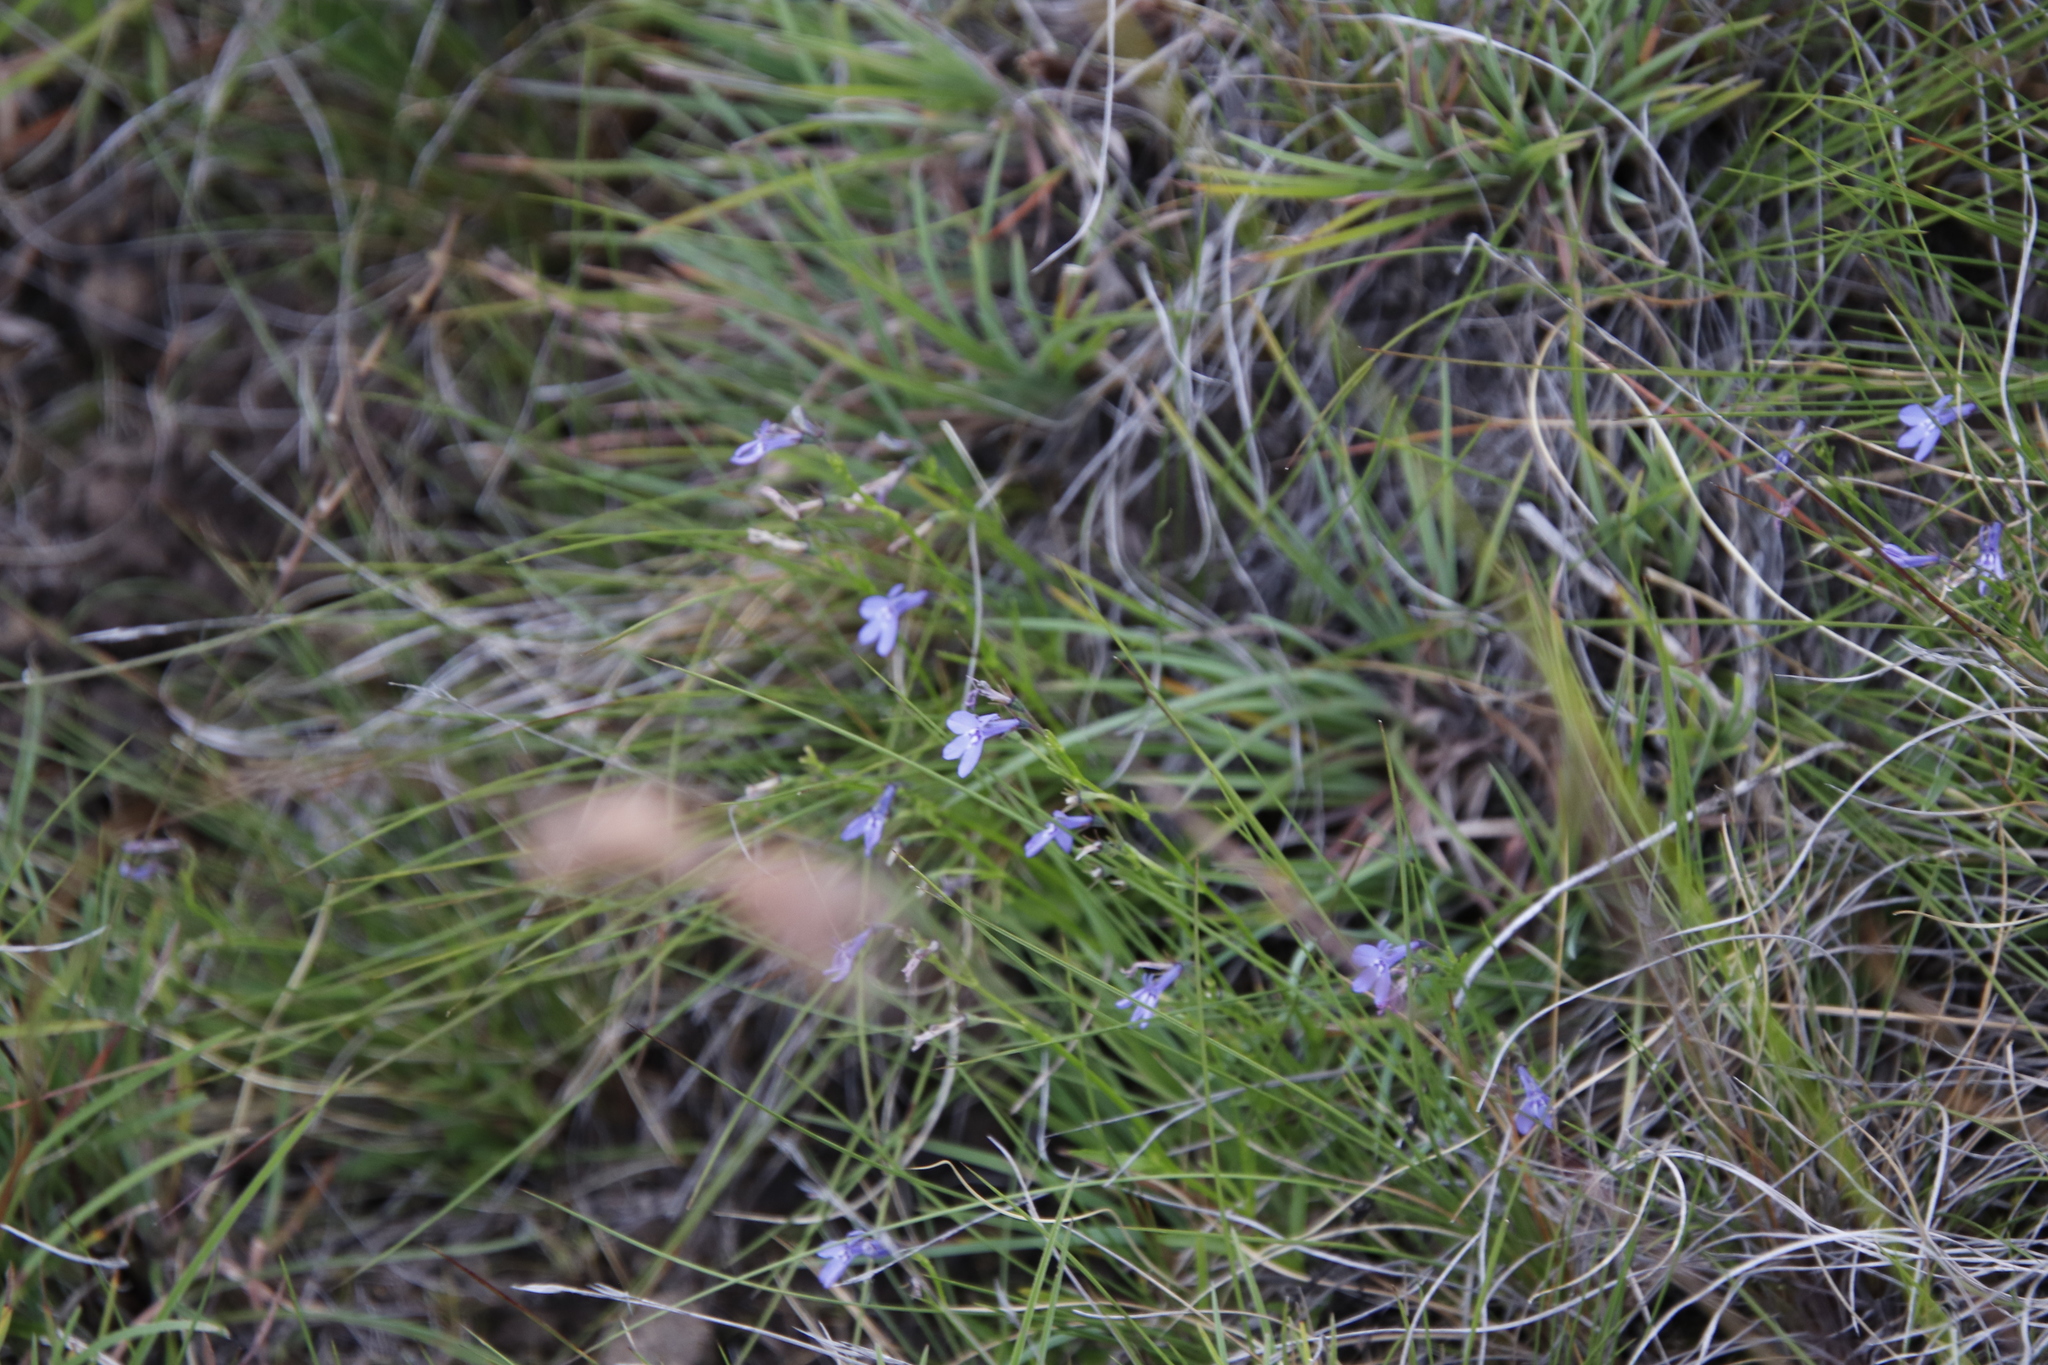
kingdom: Plantae
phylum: Tracheophyta
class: Magnoliopsida
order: Asterales
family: Campanulaceae
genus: Lobelia
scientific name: Lobelia flaccida
